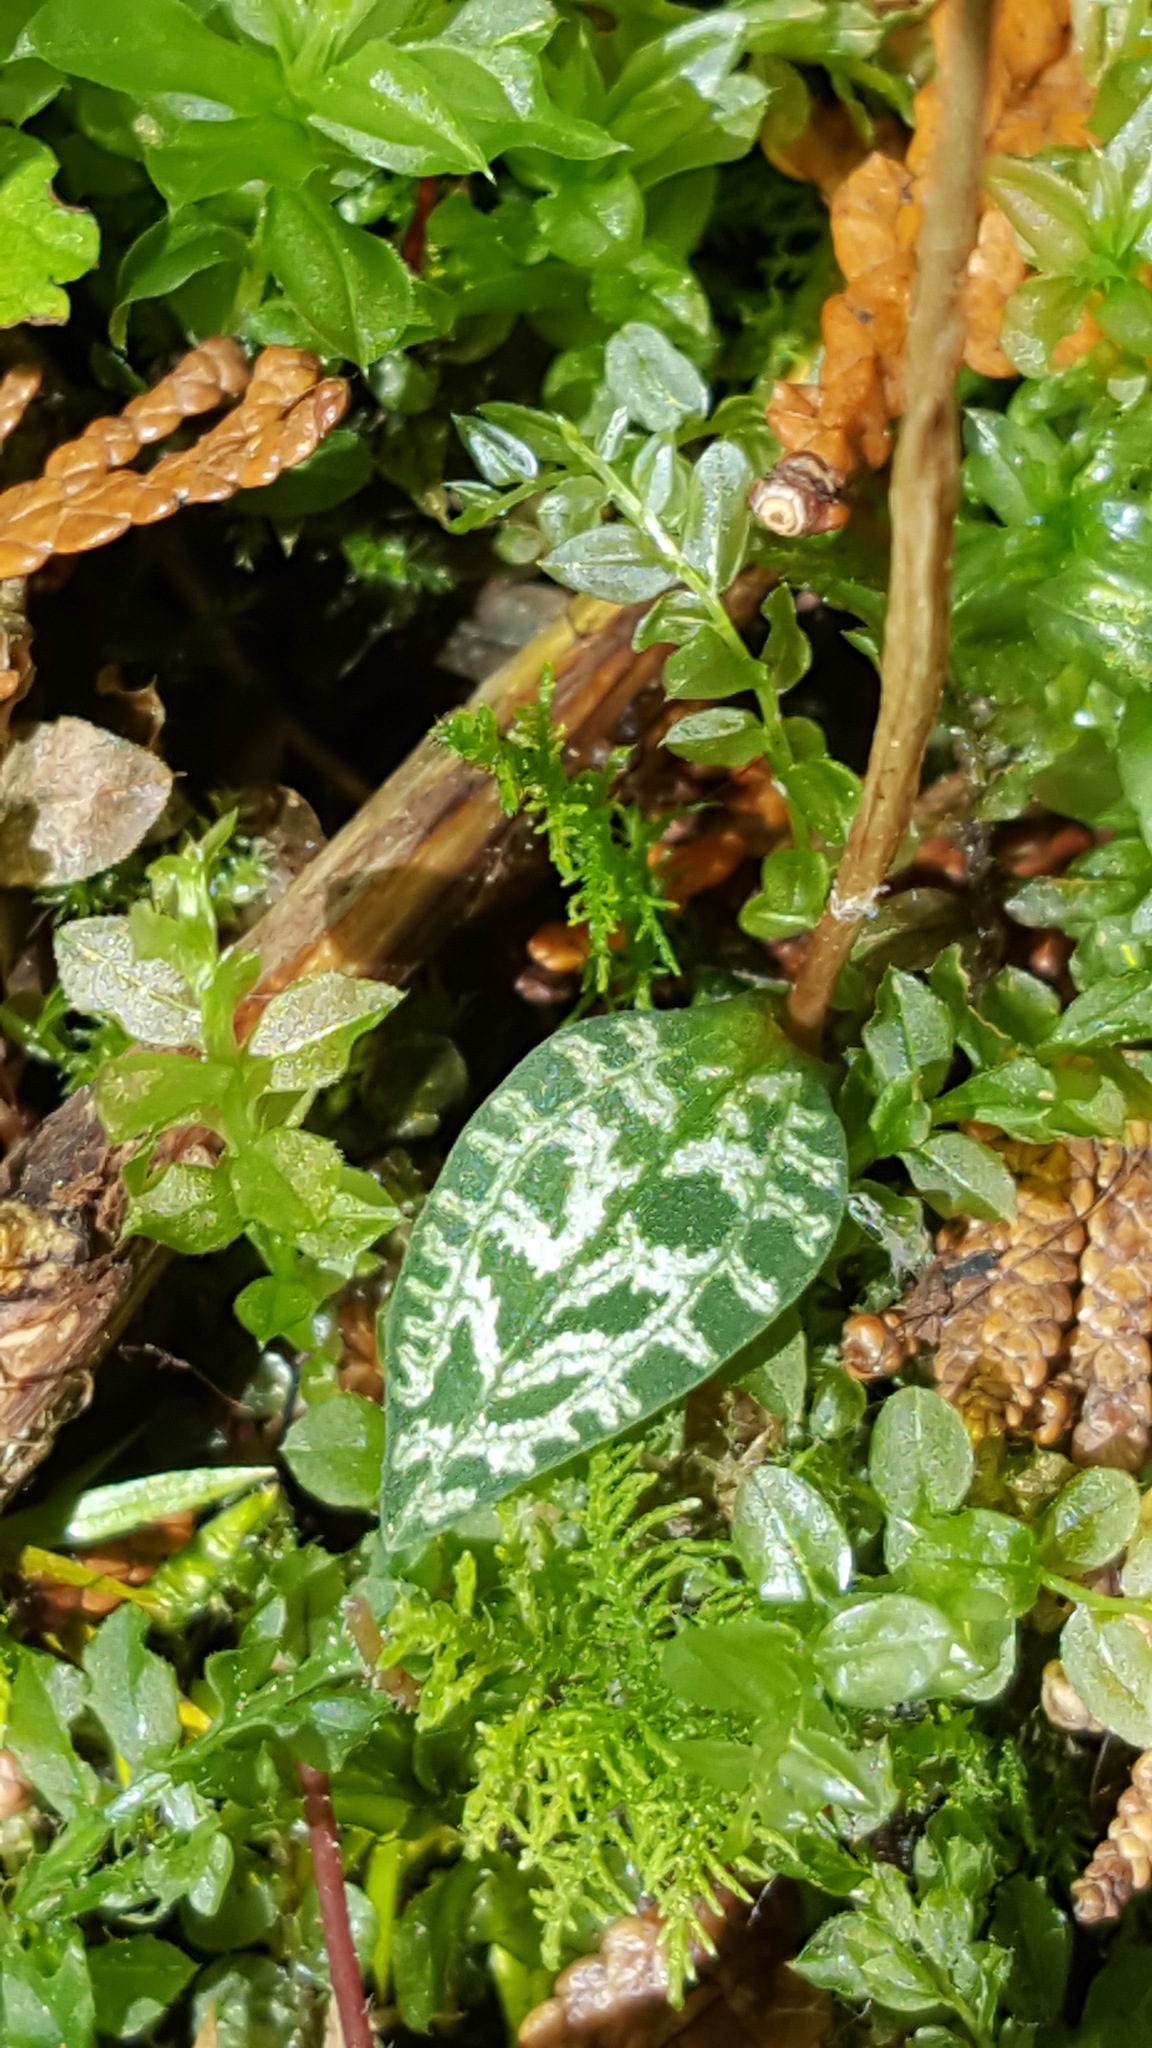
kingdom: Plantae
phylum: Tracheophyta
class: Liliopsida
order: Asparagales
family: Orchidaceae
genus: Goodyera
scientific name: Goodyera repens
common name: Creeping lady's-tresses
